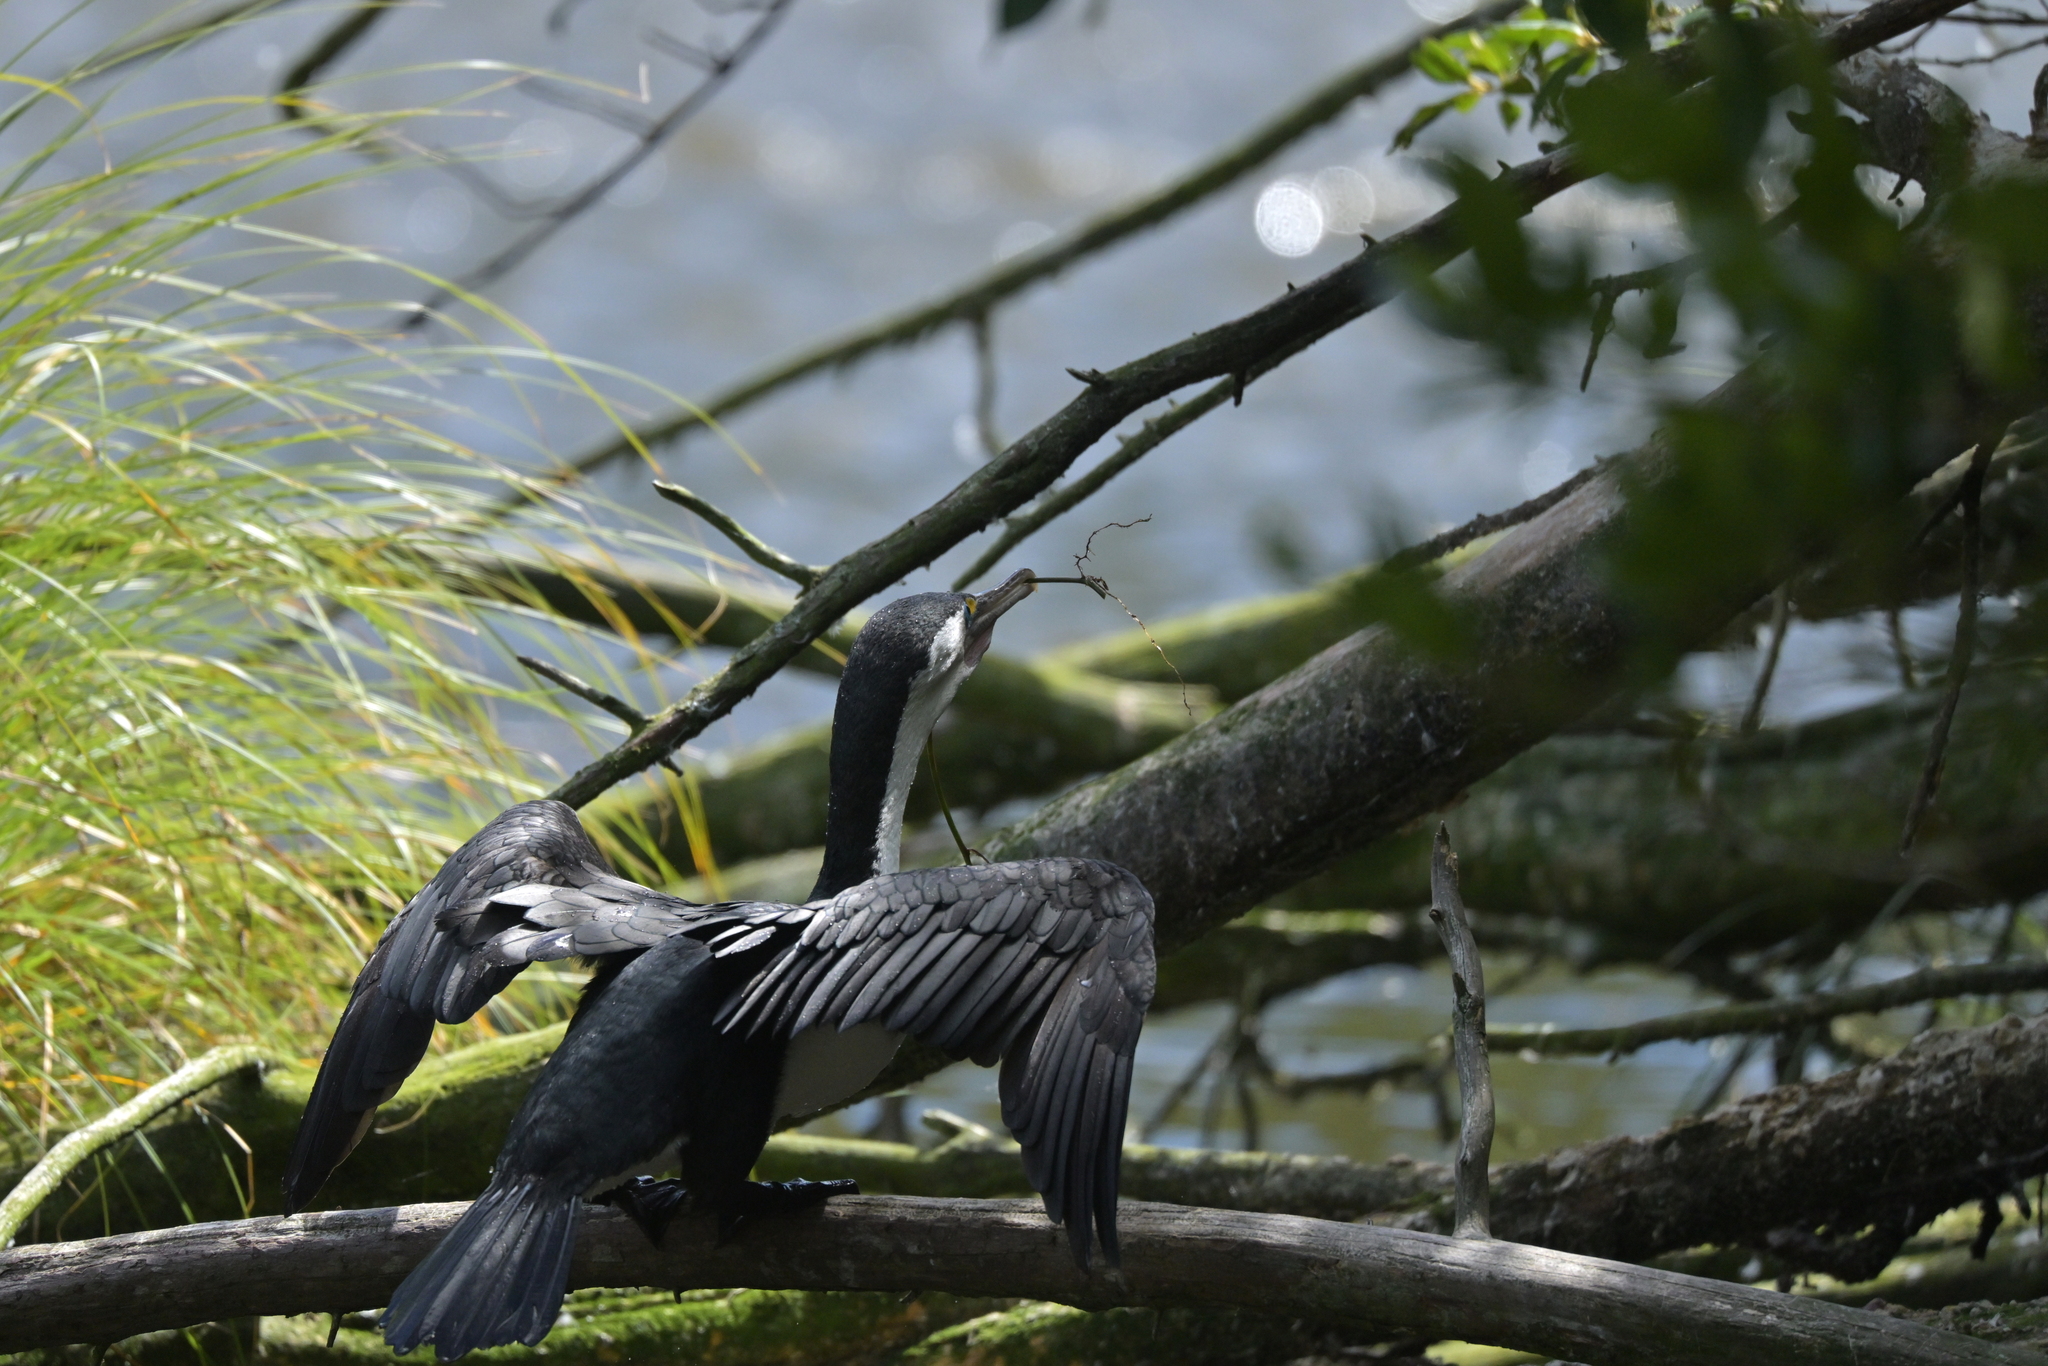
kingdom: Animalia
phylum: Chordata
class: Aves
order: Suliformes
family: Phalacrocoracidae
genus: Phalacrocorax
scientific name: Phalacrocorax varius
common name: Pied cormorant
